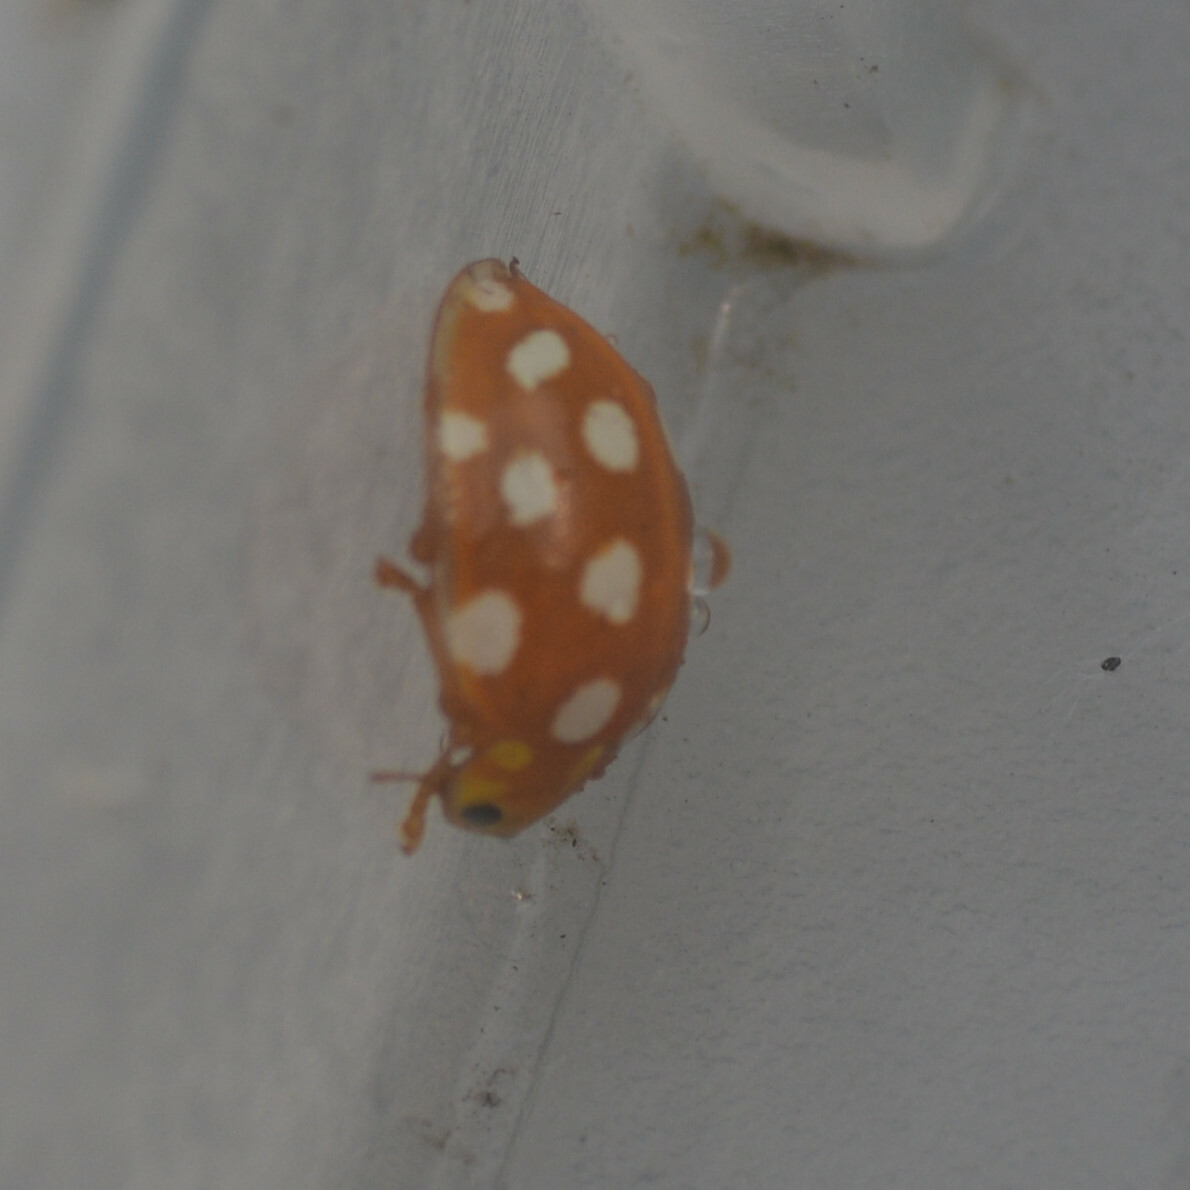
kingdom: Animalia
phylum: Arthropoda
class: Insecta
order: Coleoptera
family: Coccinellidae
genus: Halyzia
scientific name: Halyzia sedecimguttata
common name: Orange ladybird
